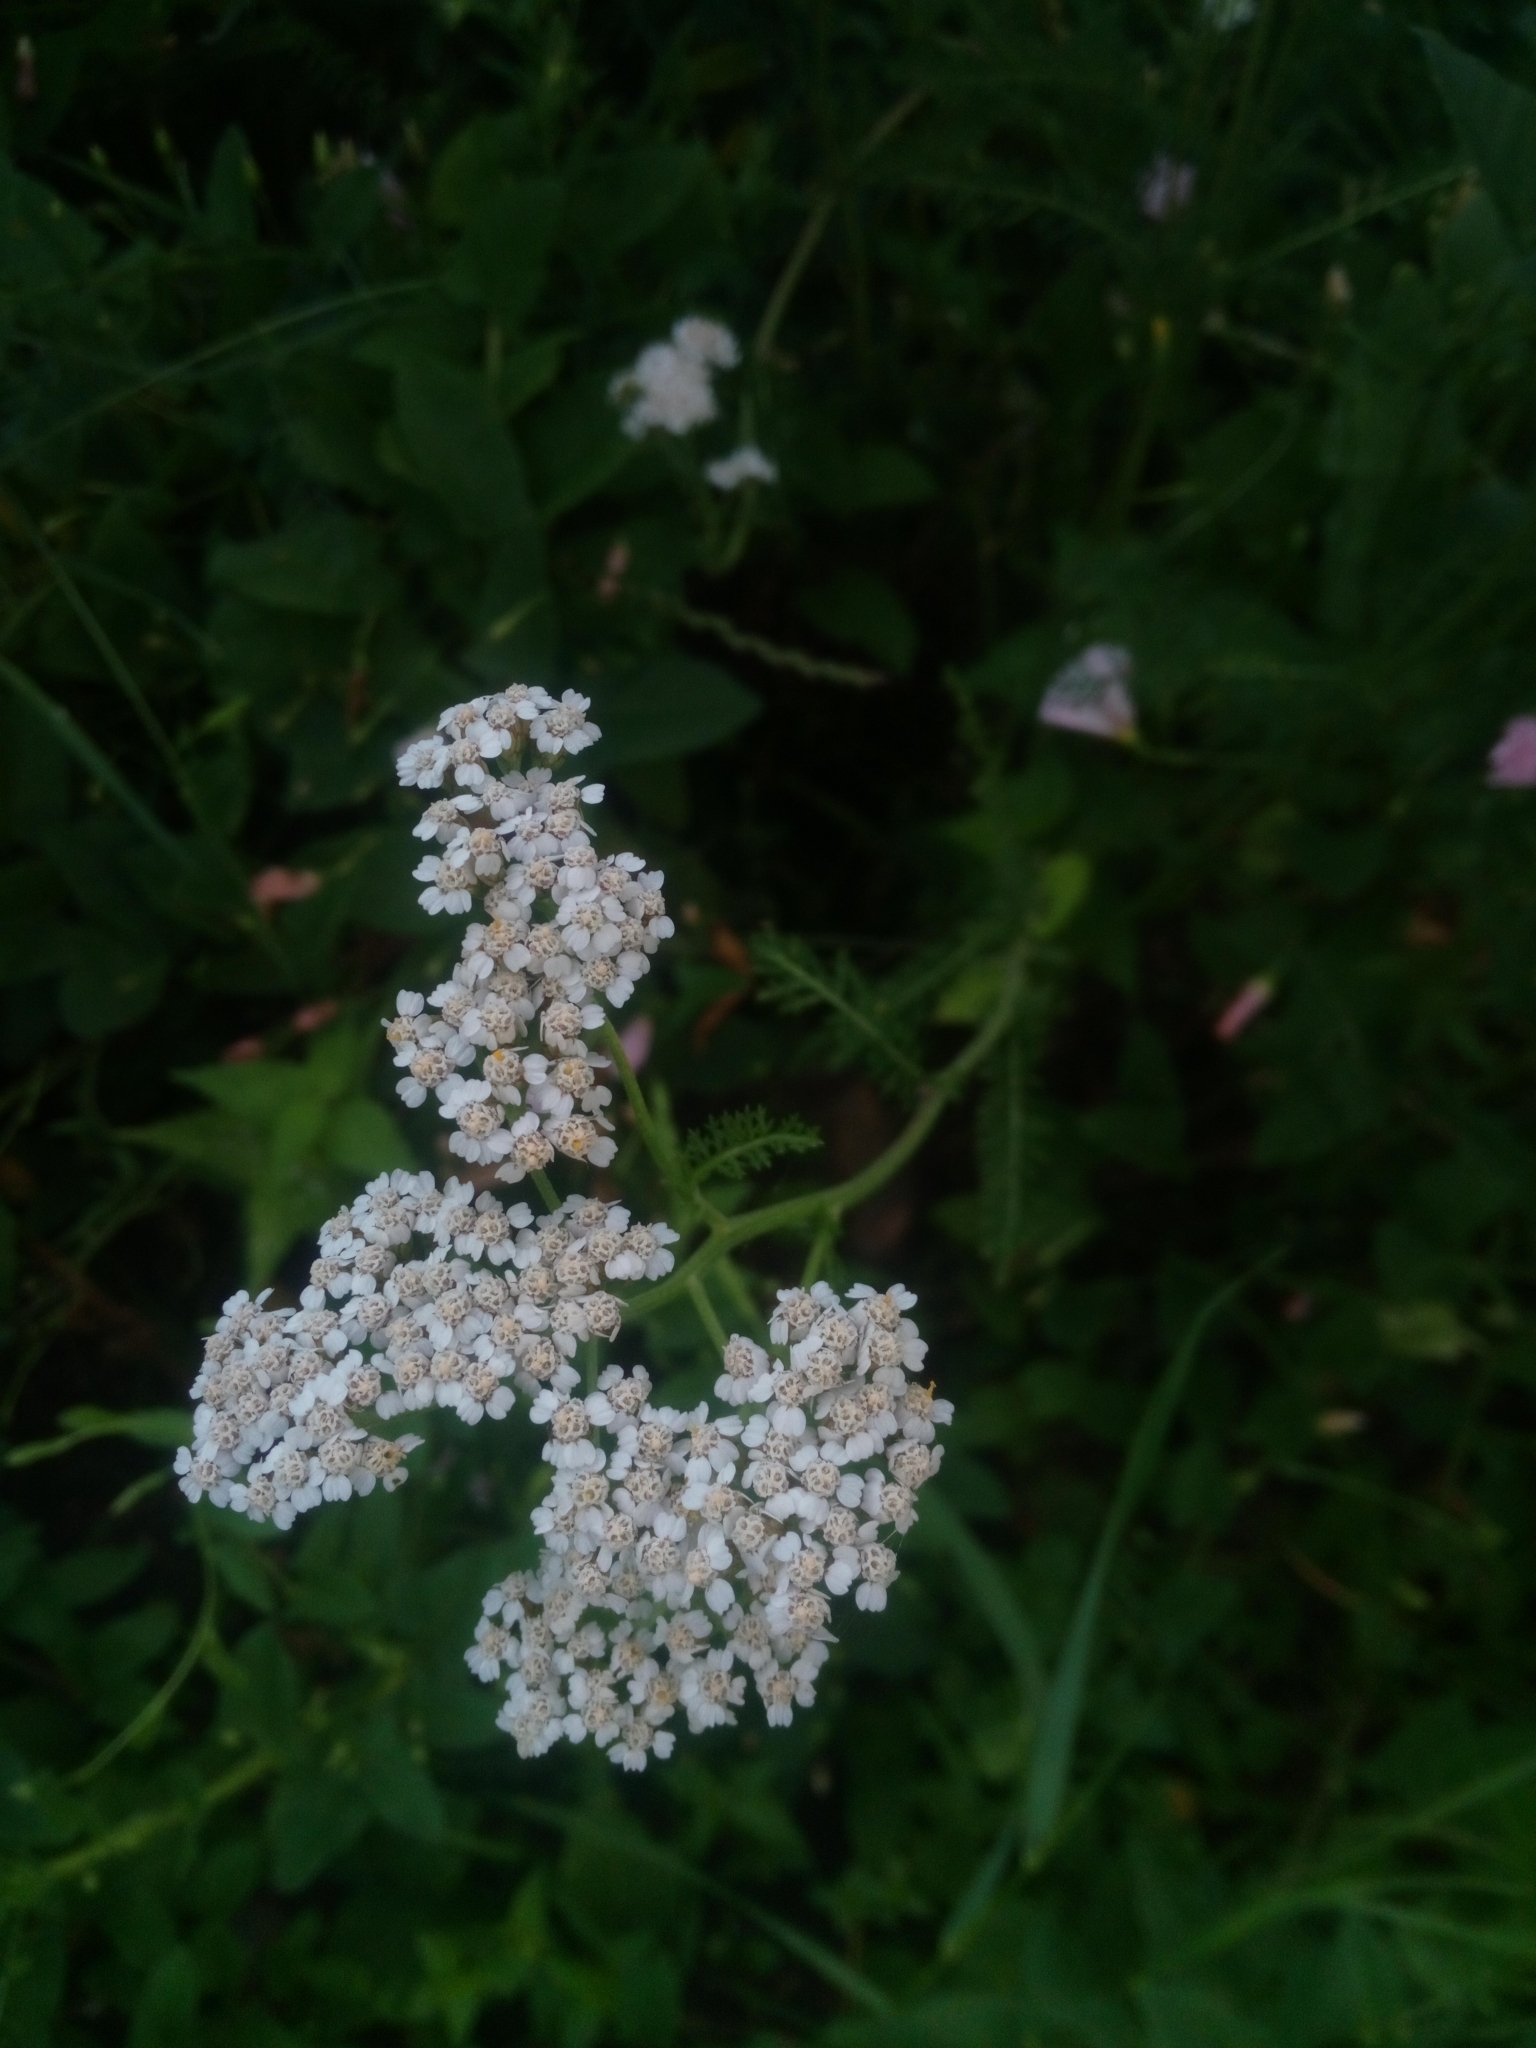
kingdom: Plantae
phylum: Tracheophyta
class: Magnoliopsida
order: Asterales
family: Asteraceae
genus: Achillea
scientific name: Achillea millefolium
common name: Yarrow
